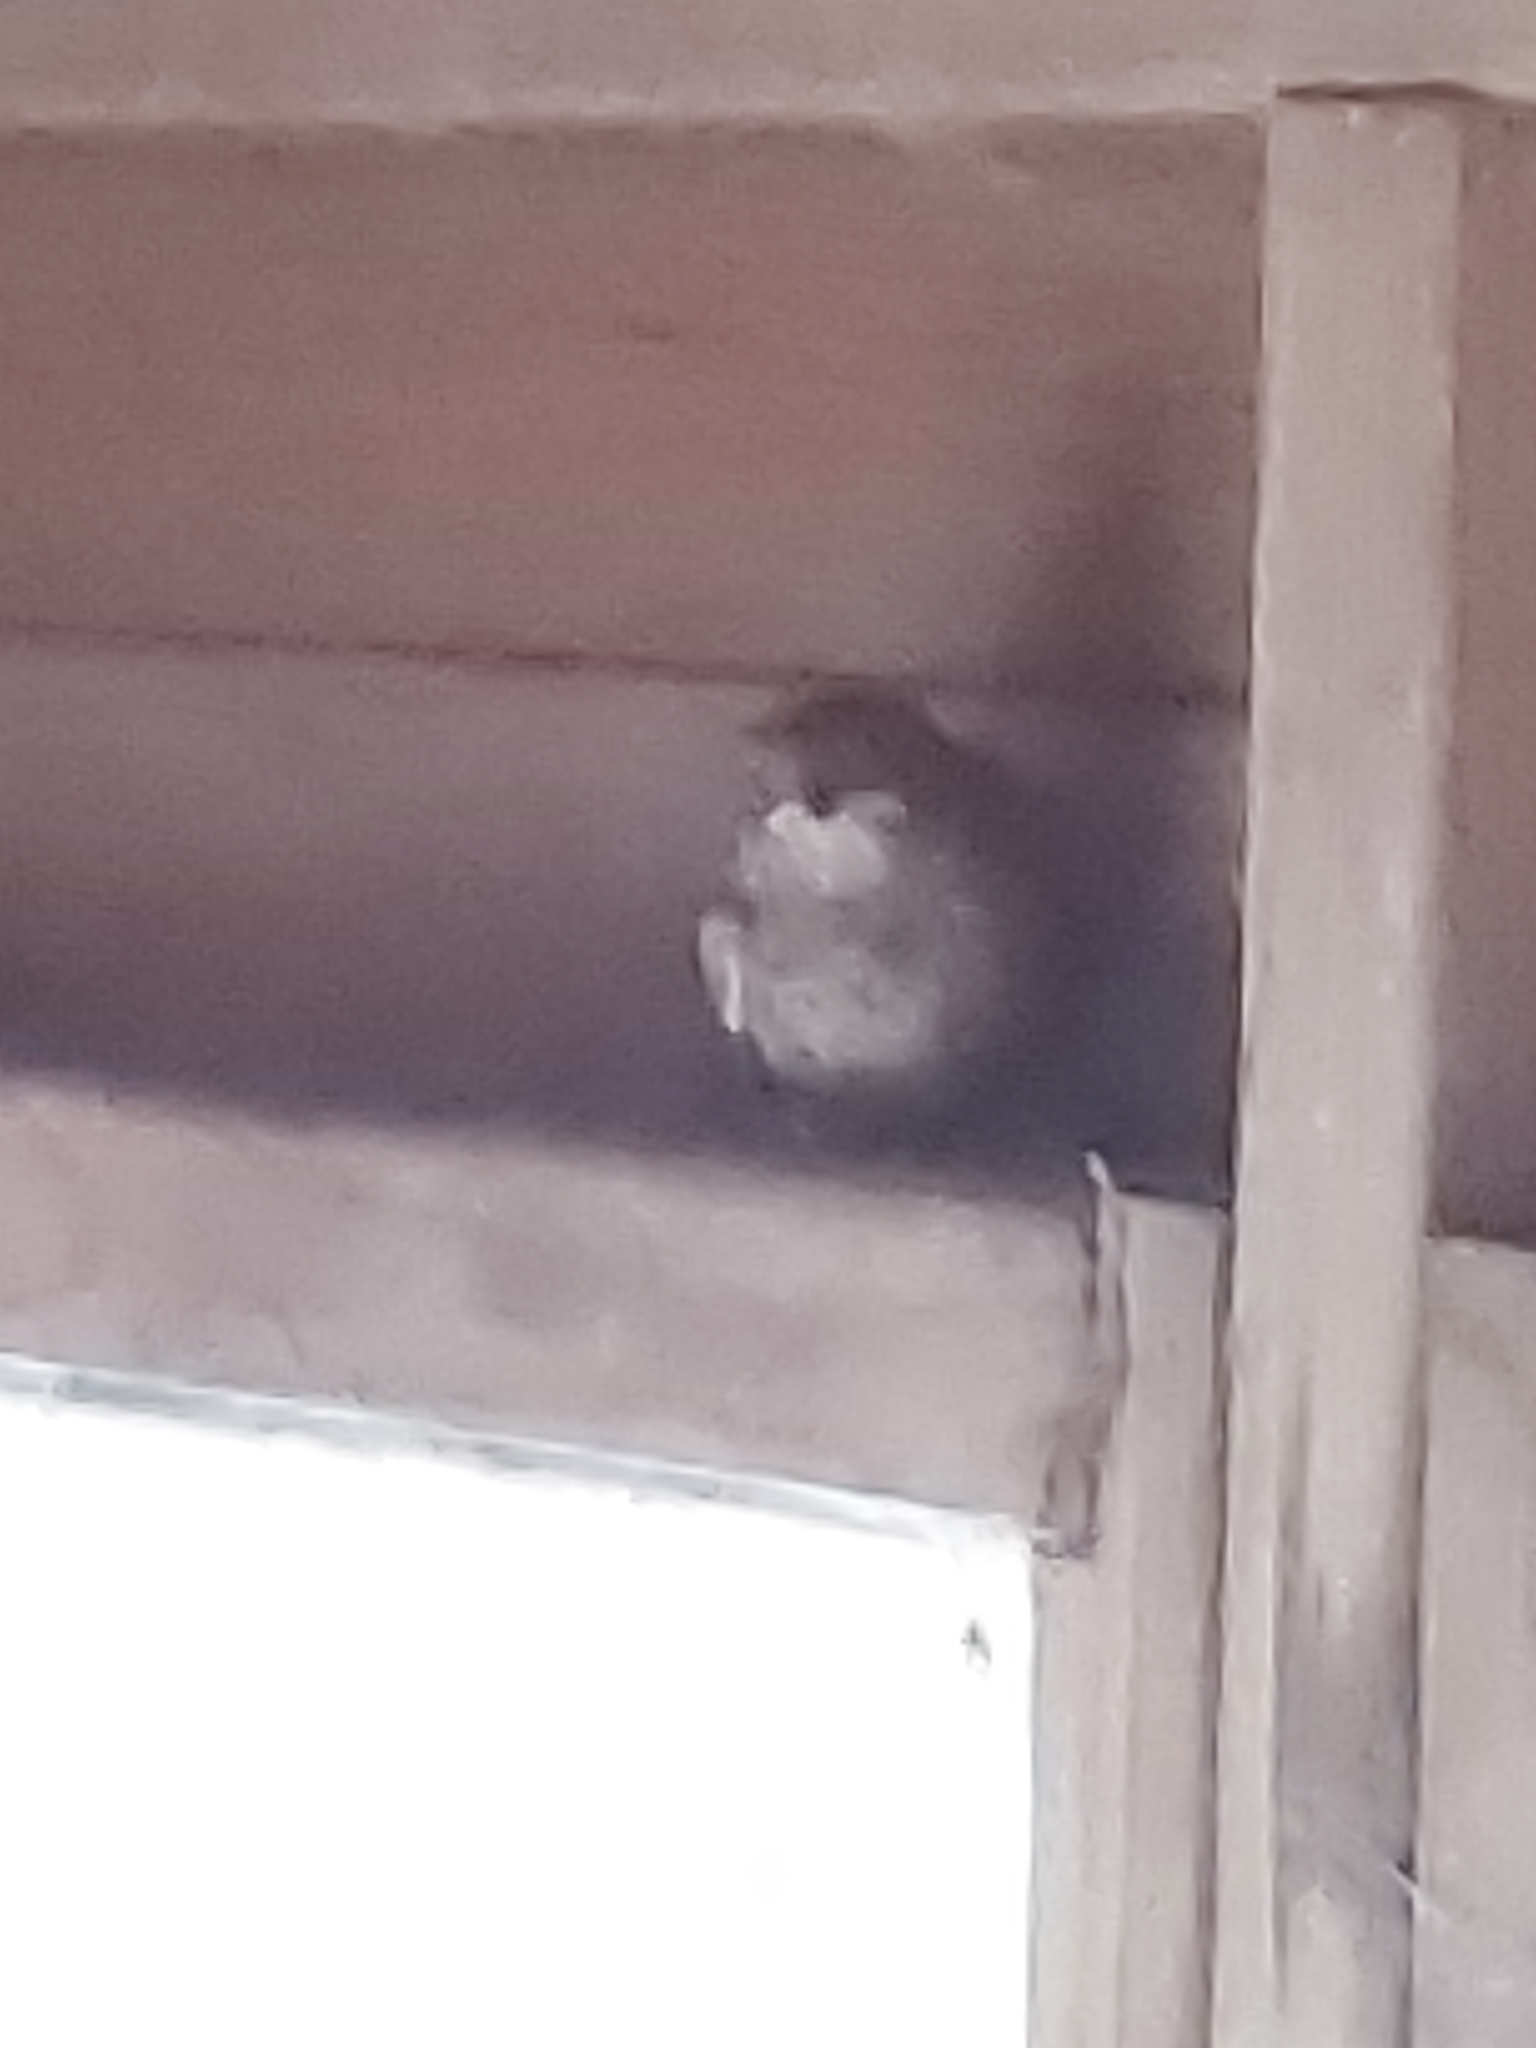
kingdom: Animalia
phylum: Chordata
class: Aves
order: Passeriformes
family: Muscicapidae
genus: Erithacus
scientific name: Erithacus rubecula
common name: European robin
